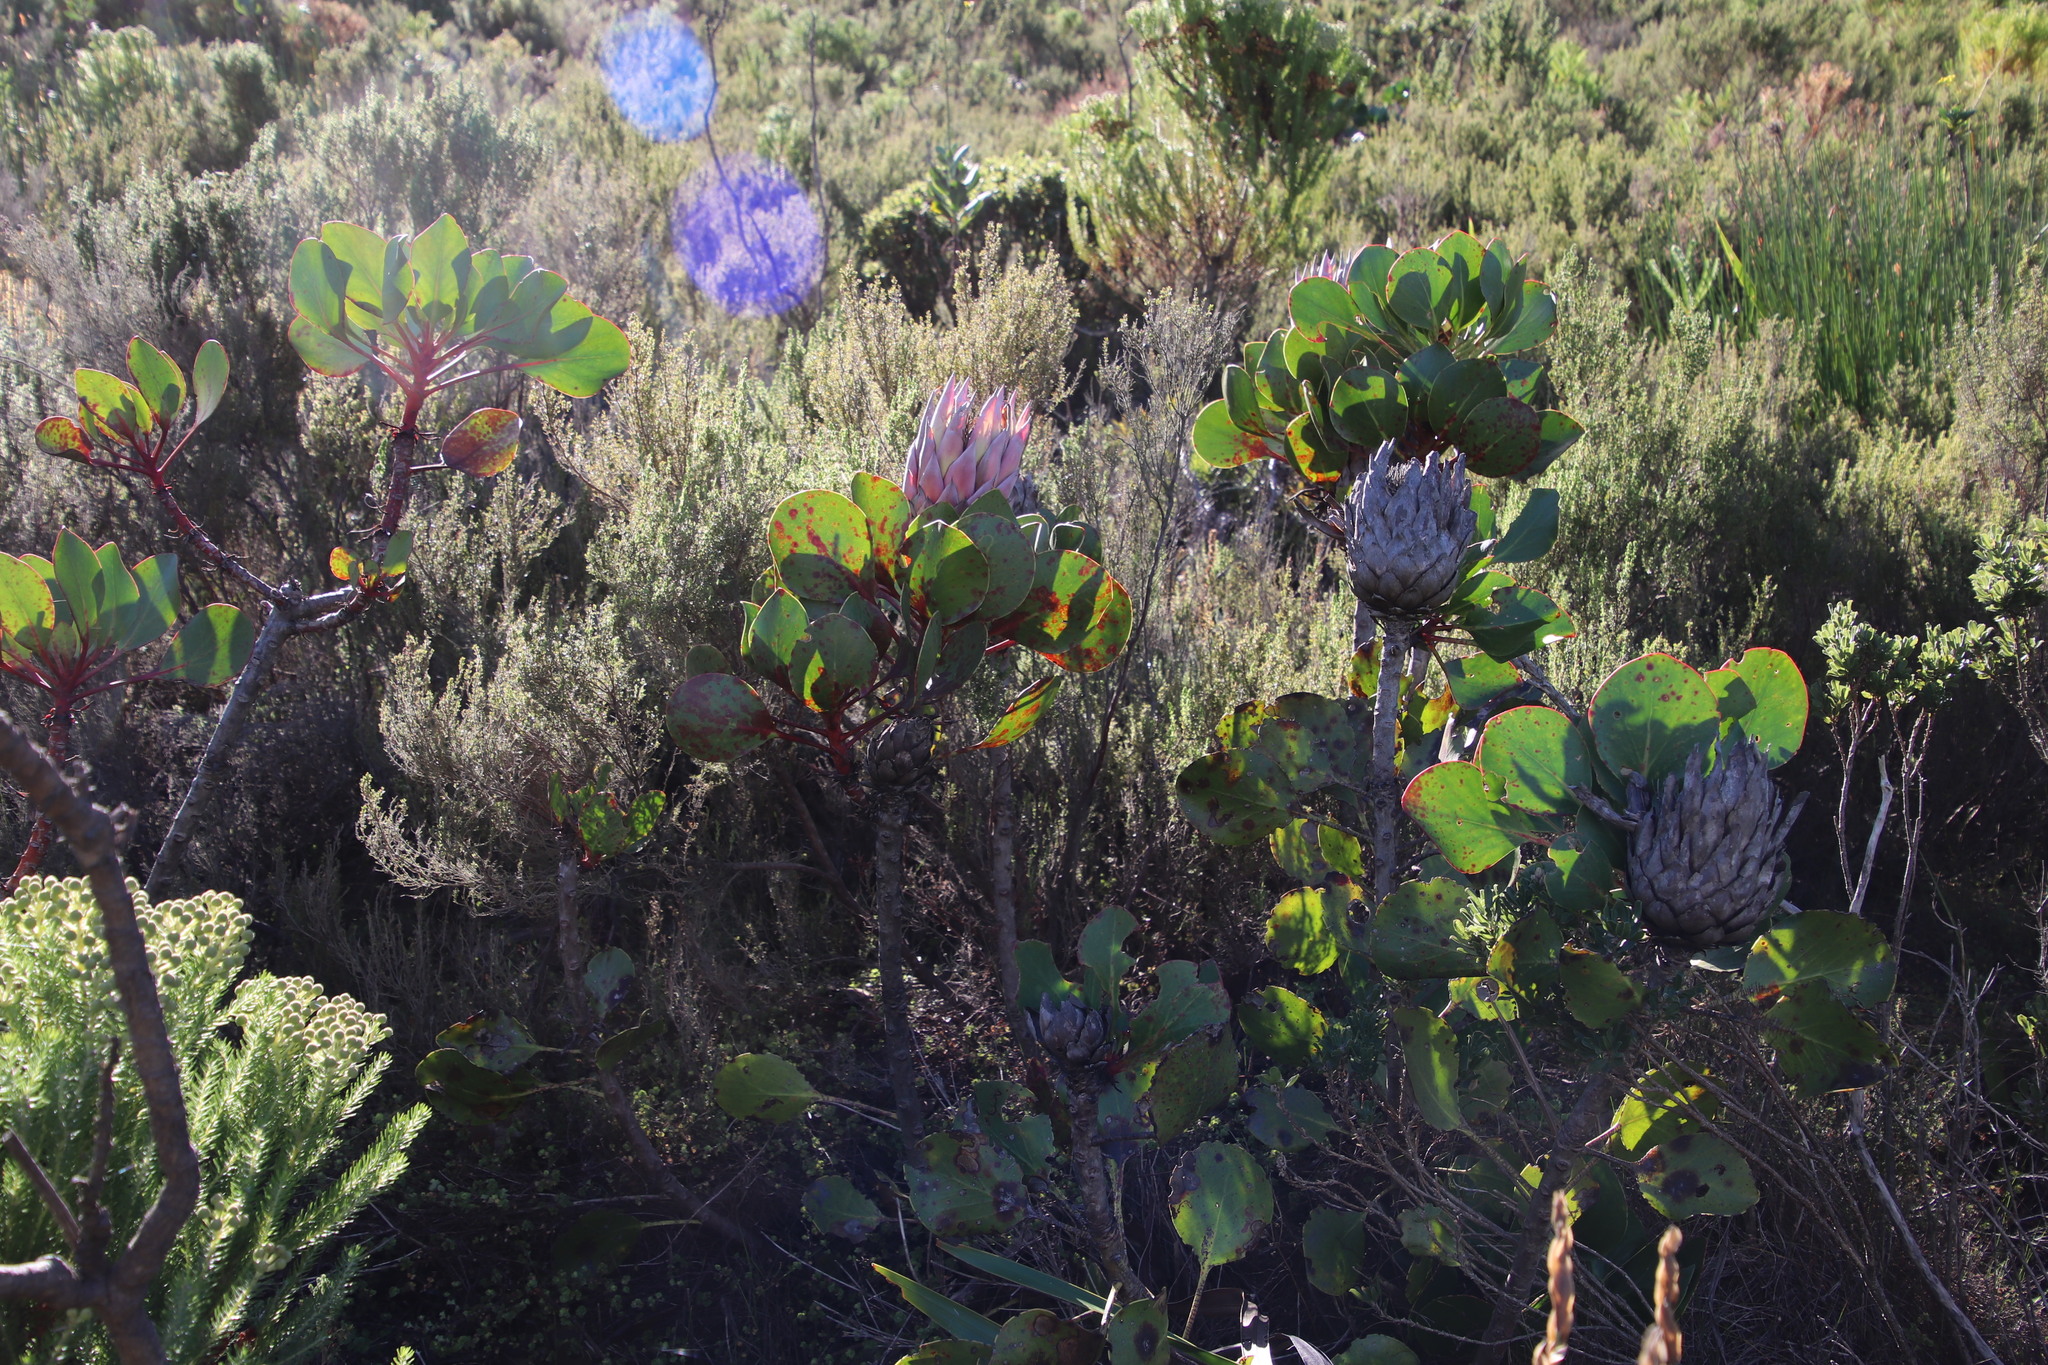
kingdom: Plantae
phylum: Tracheophyta
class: Magnoliopsida
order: Proteales
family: Proteaceae
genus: Protea
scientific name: Protea cynaroides
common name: King protea
